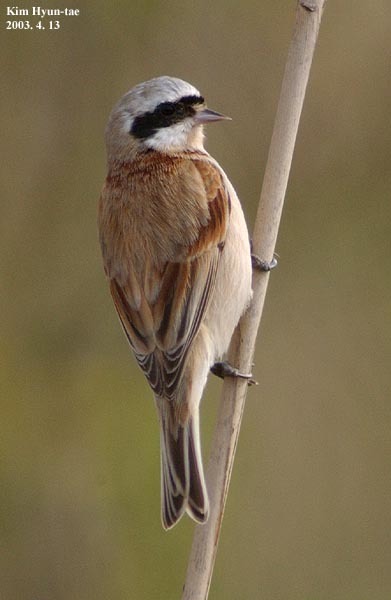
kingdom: Animalia
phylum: Chordata
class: Aves
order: Passeriformes
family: Remizidae
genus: Remiz
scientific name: Remiz consobrinus
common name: Chinese penduline tit
